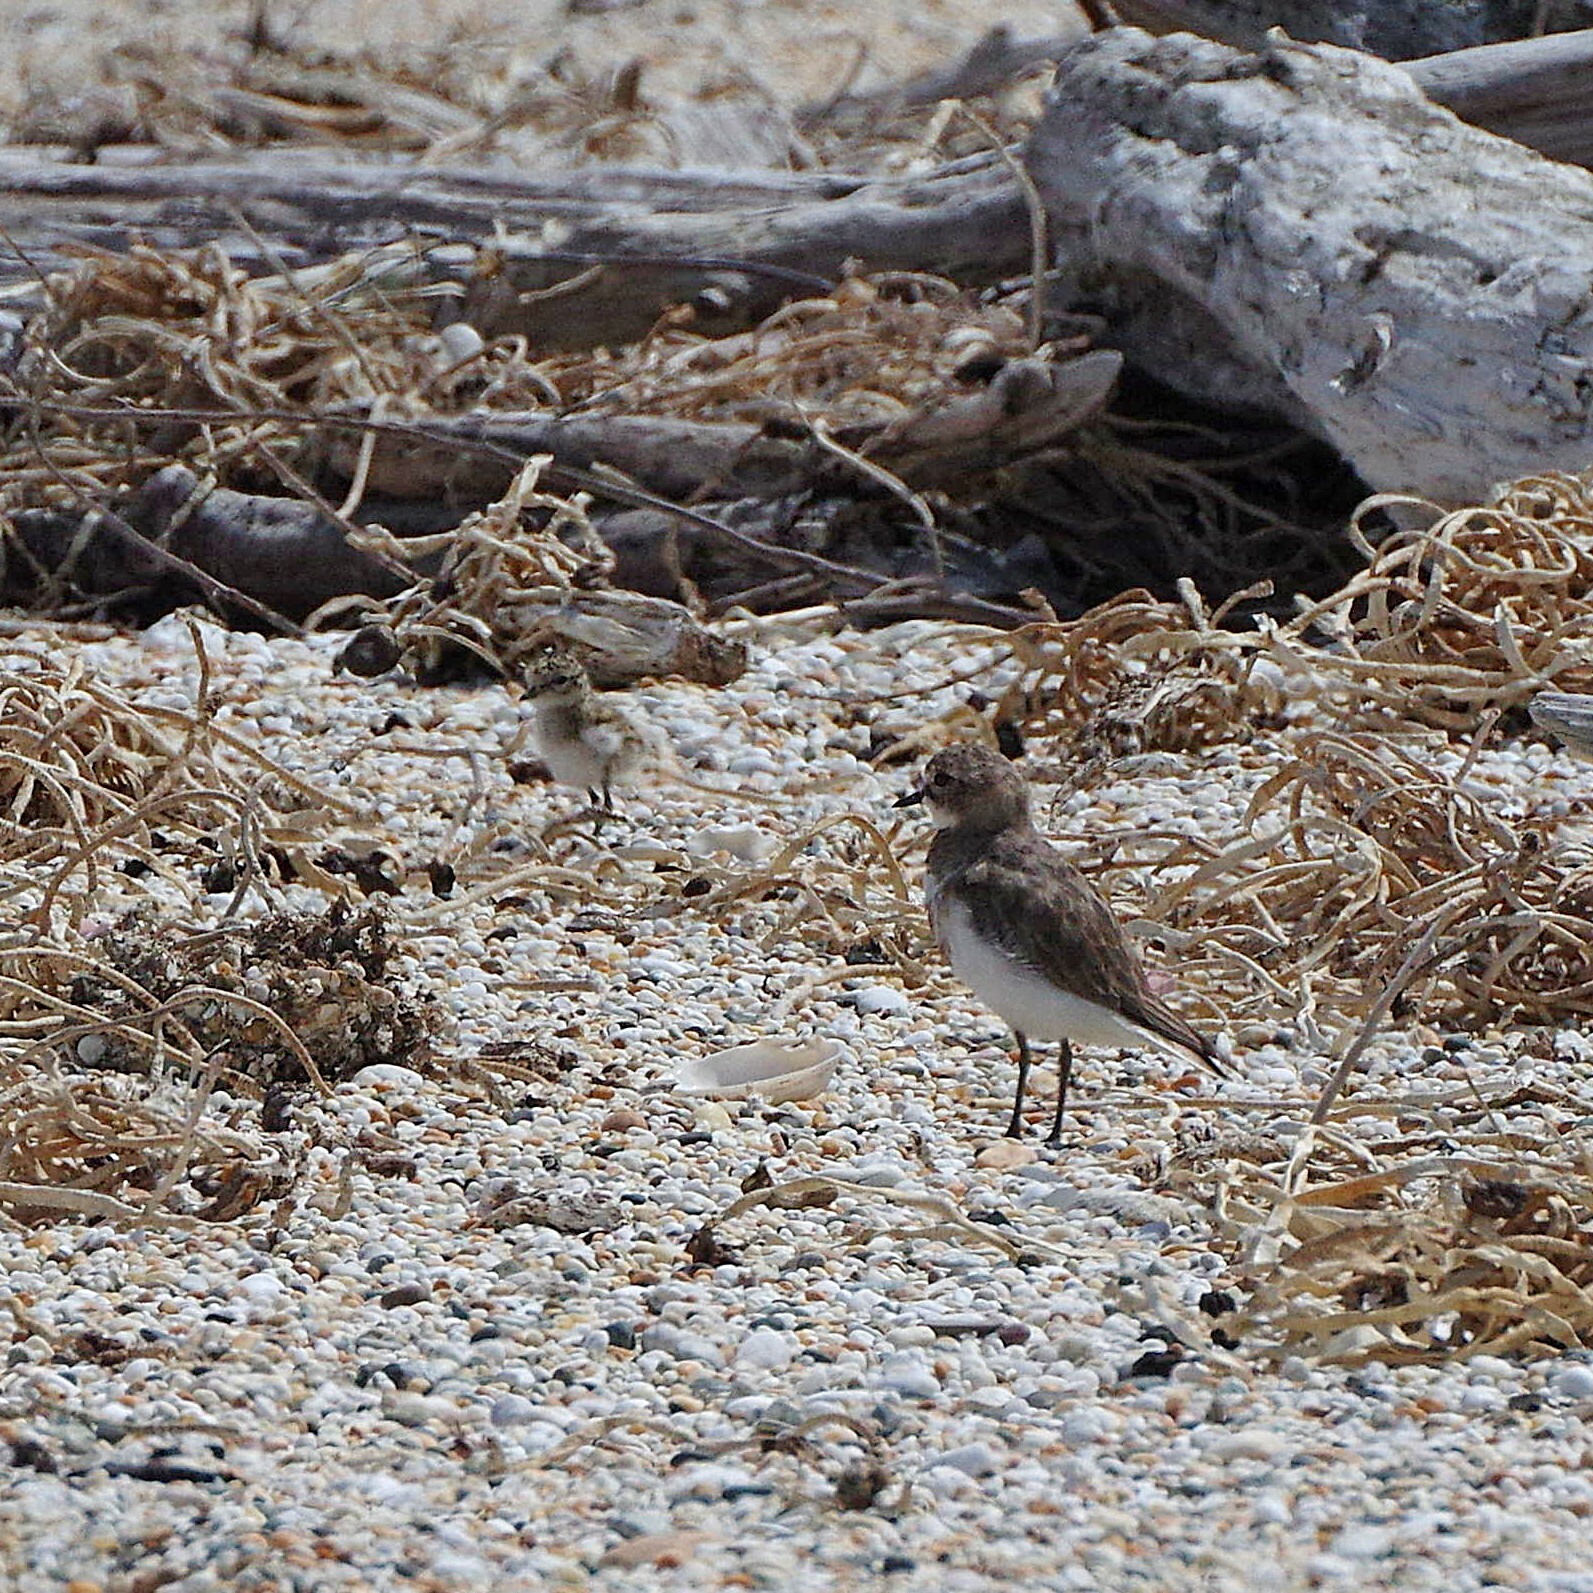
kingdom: Animalia
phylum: Chordata
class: Aves
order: Charadriiformes
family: Charadriidae
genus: Anarhynchus
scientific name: Anarhynchus
